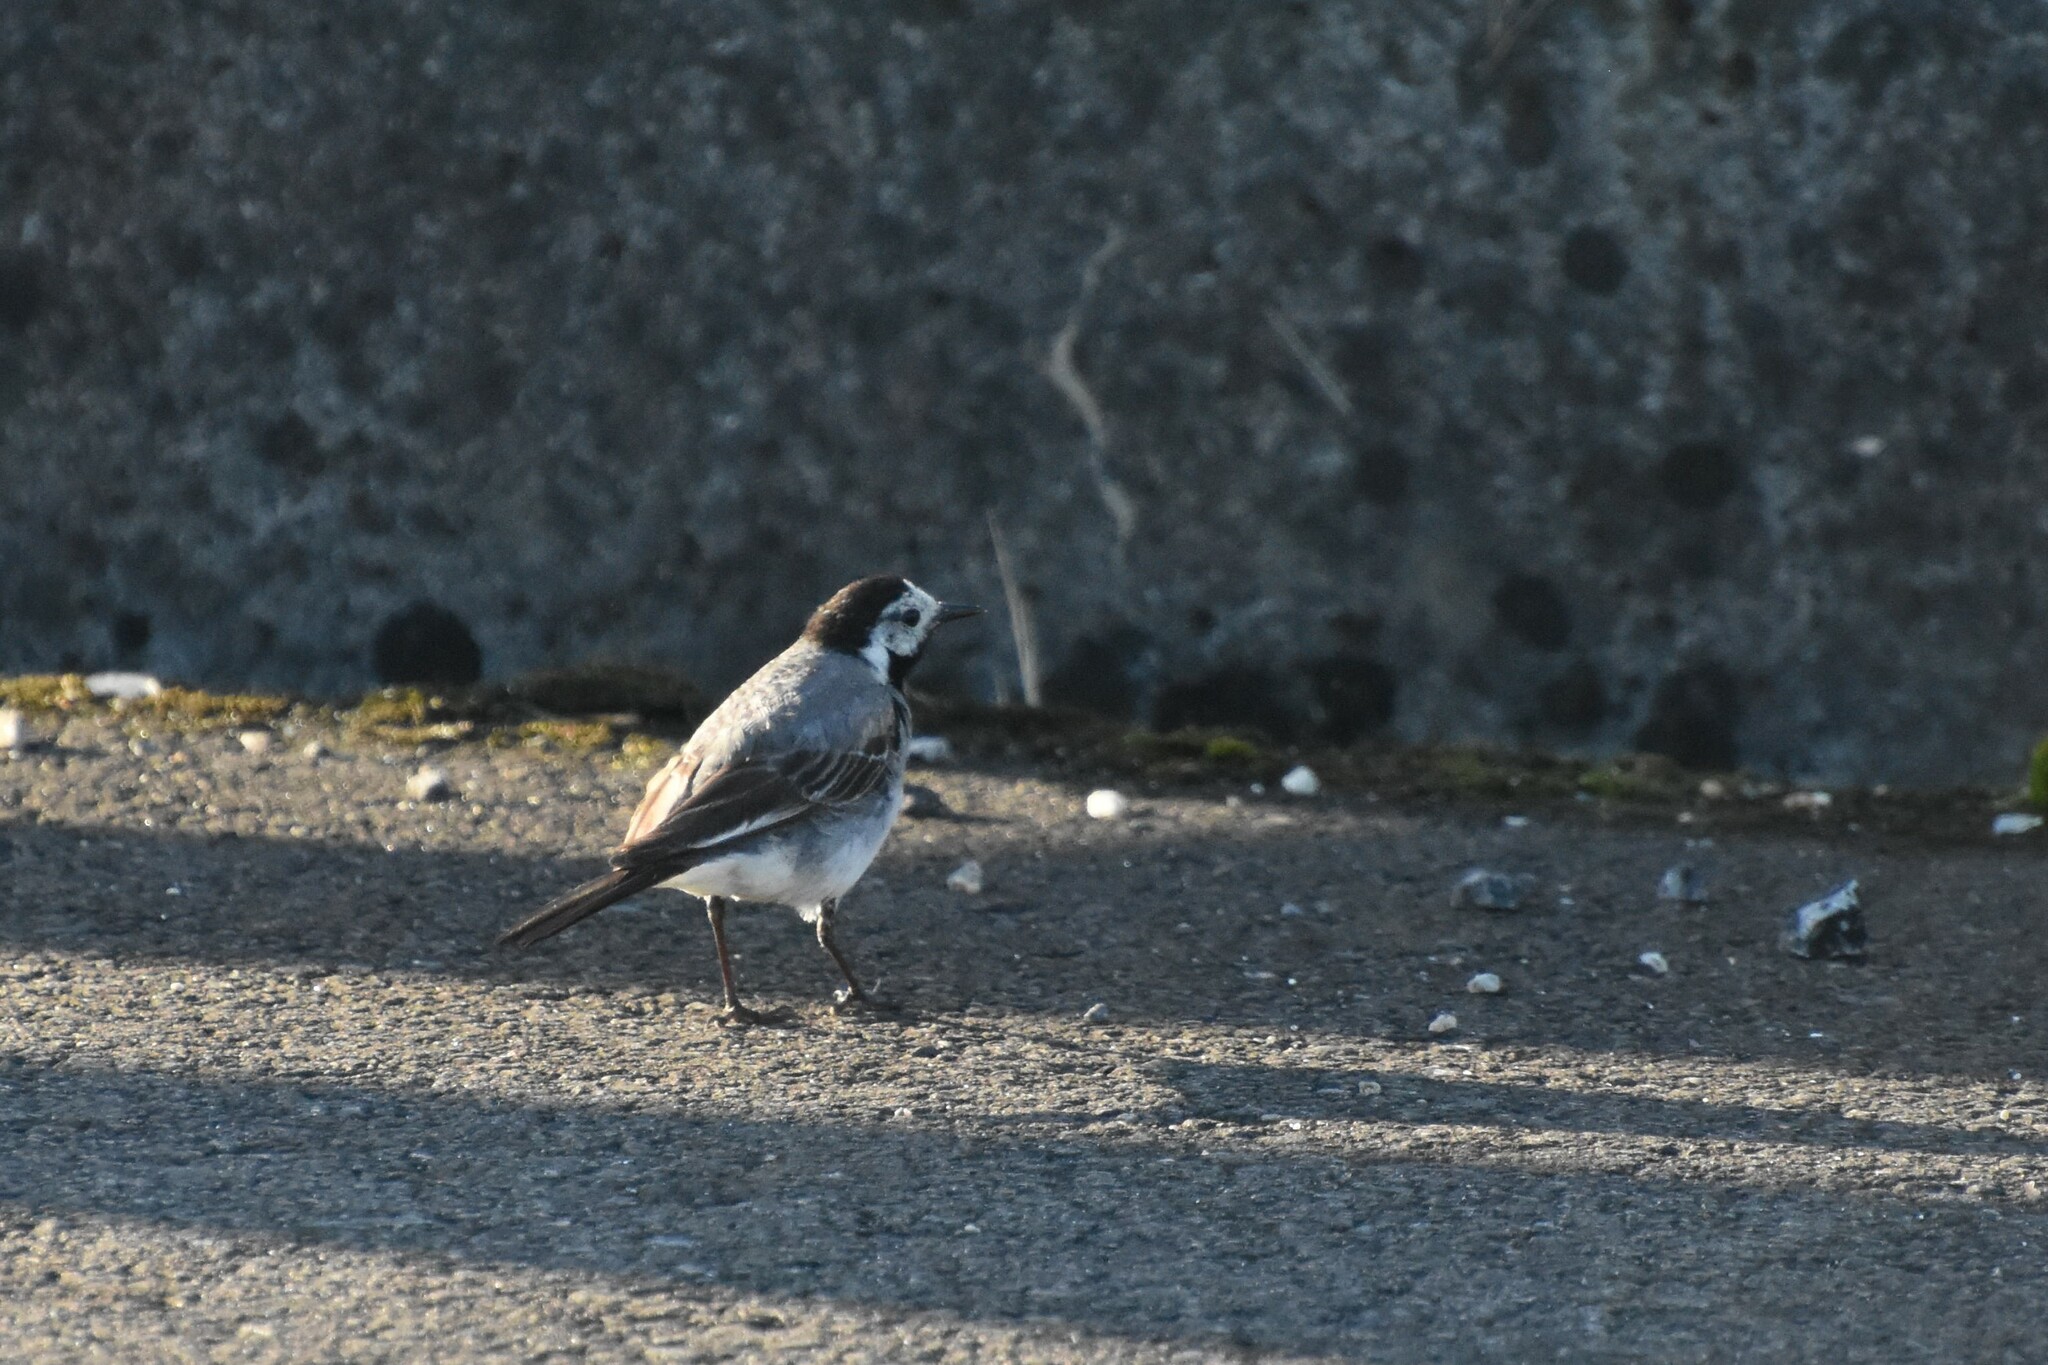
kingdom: Animalia
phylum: Chordata
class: Aves
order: Passeriformes
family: Motacillidae
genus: Motacilla
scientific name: Motacilla alba
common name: White wagtail
